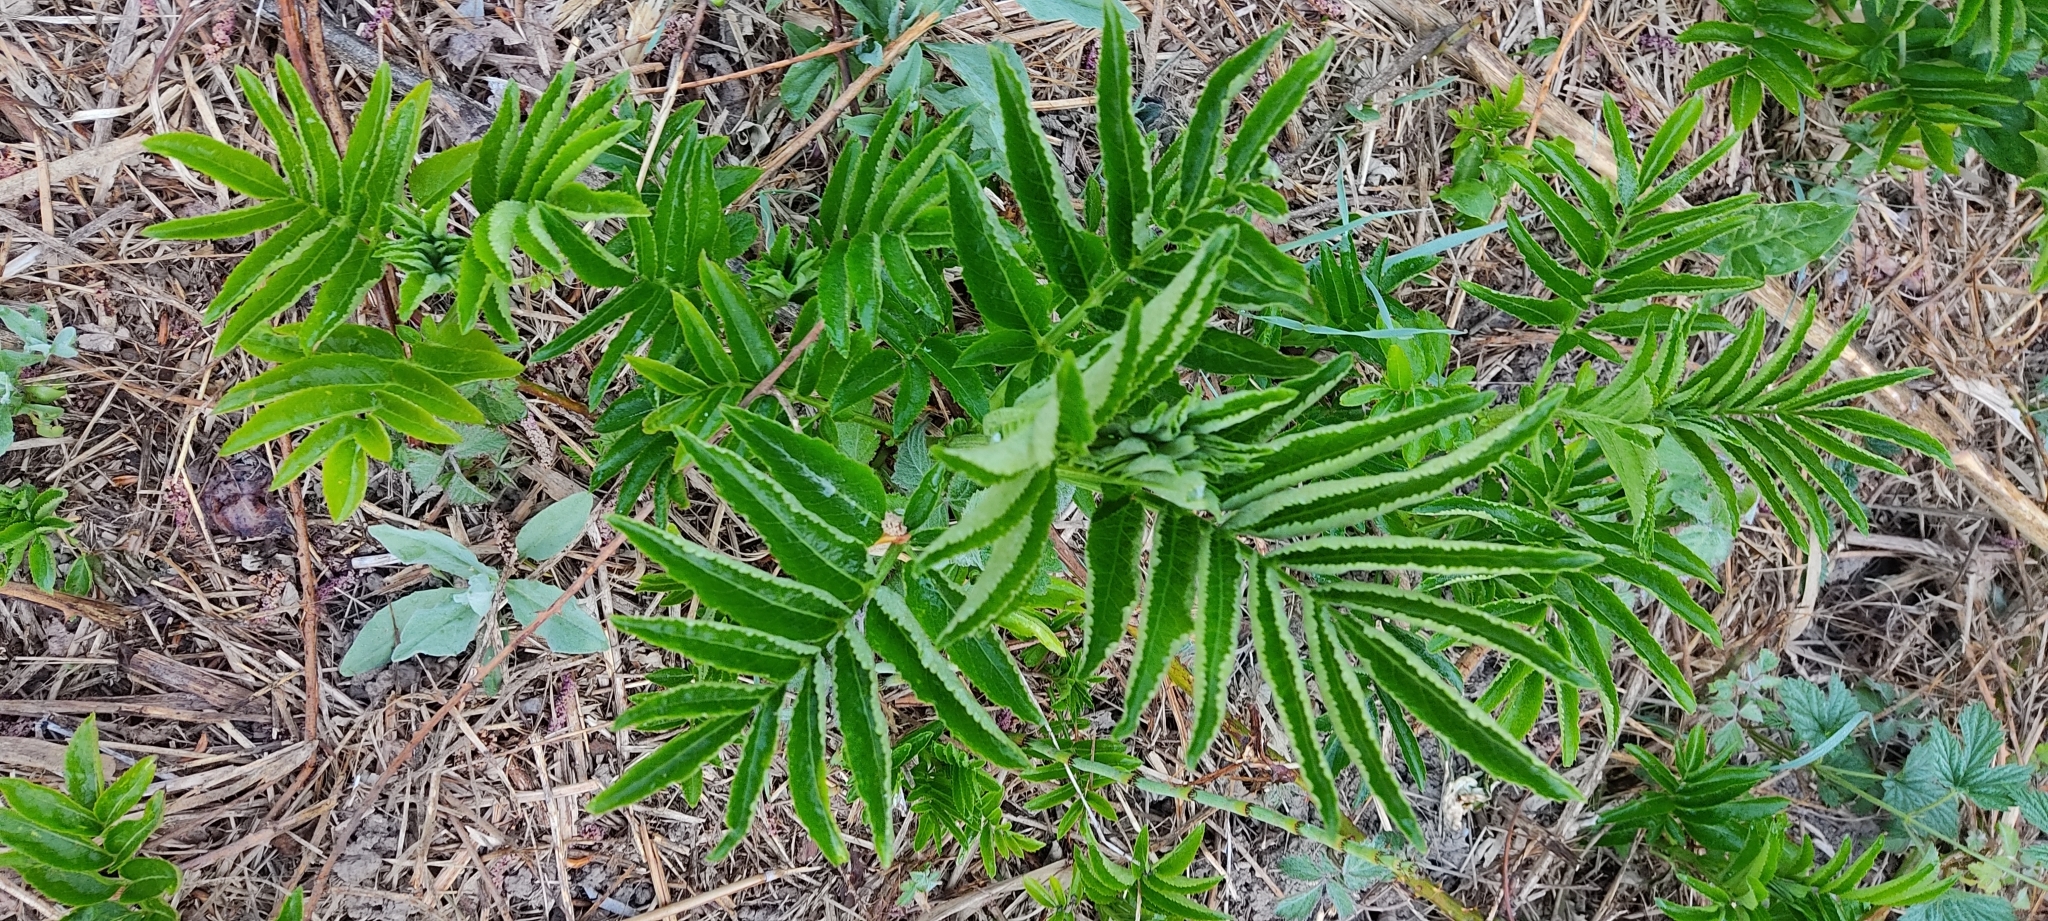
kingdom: Plantae
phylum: Tracheophyta
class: Magnoliopsida
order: Dipsacales
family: Viburnaceae
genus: Sambucus
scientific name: Sambucus ebulus
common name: Dwarf elder
